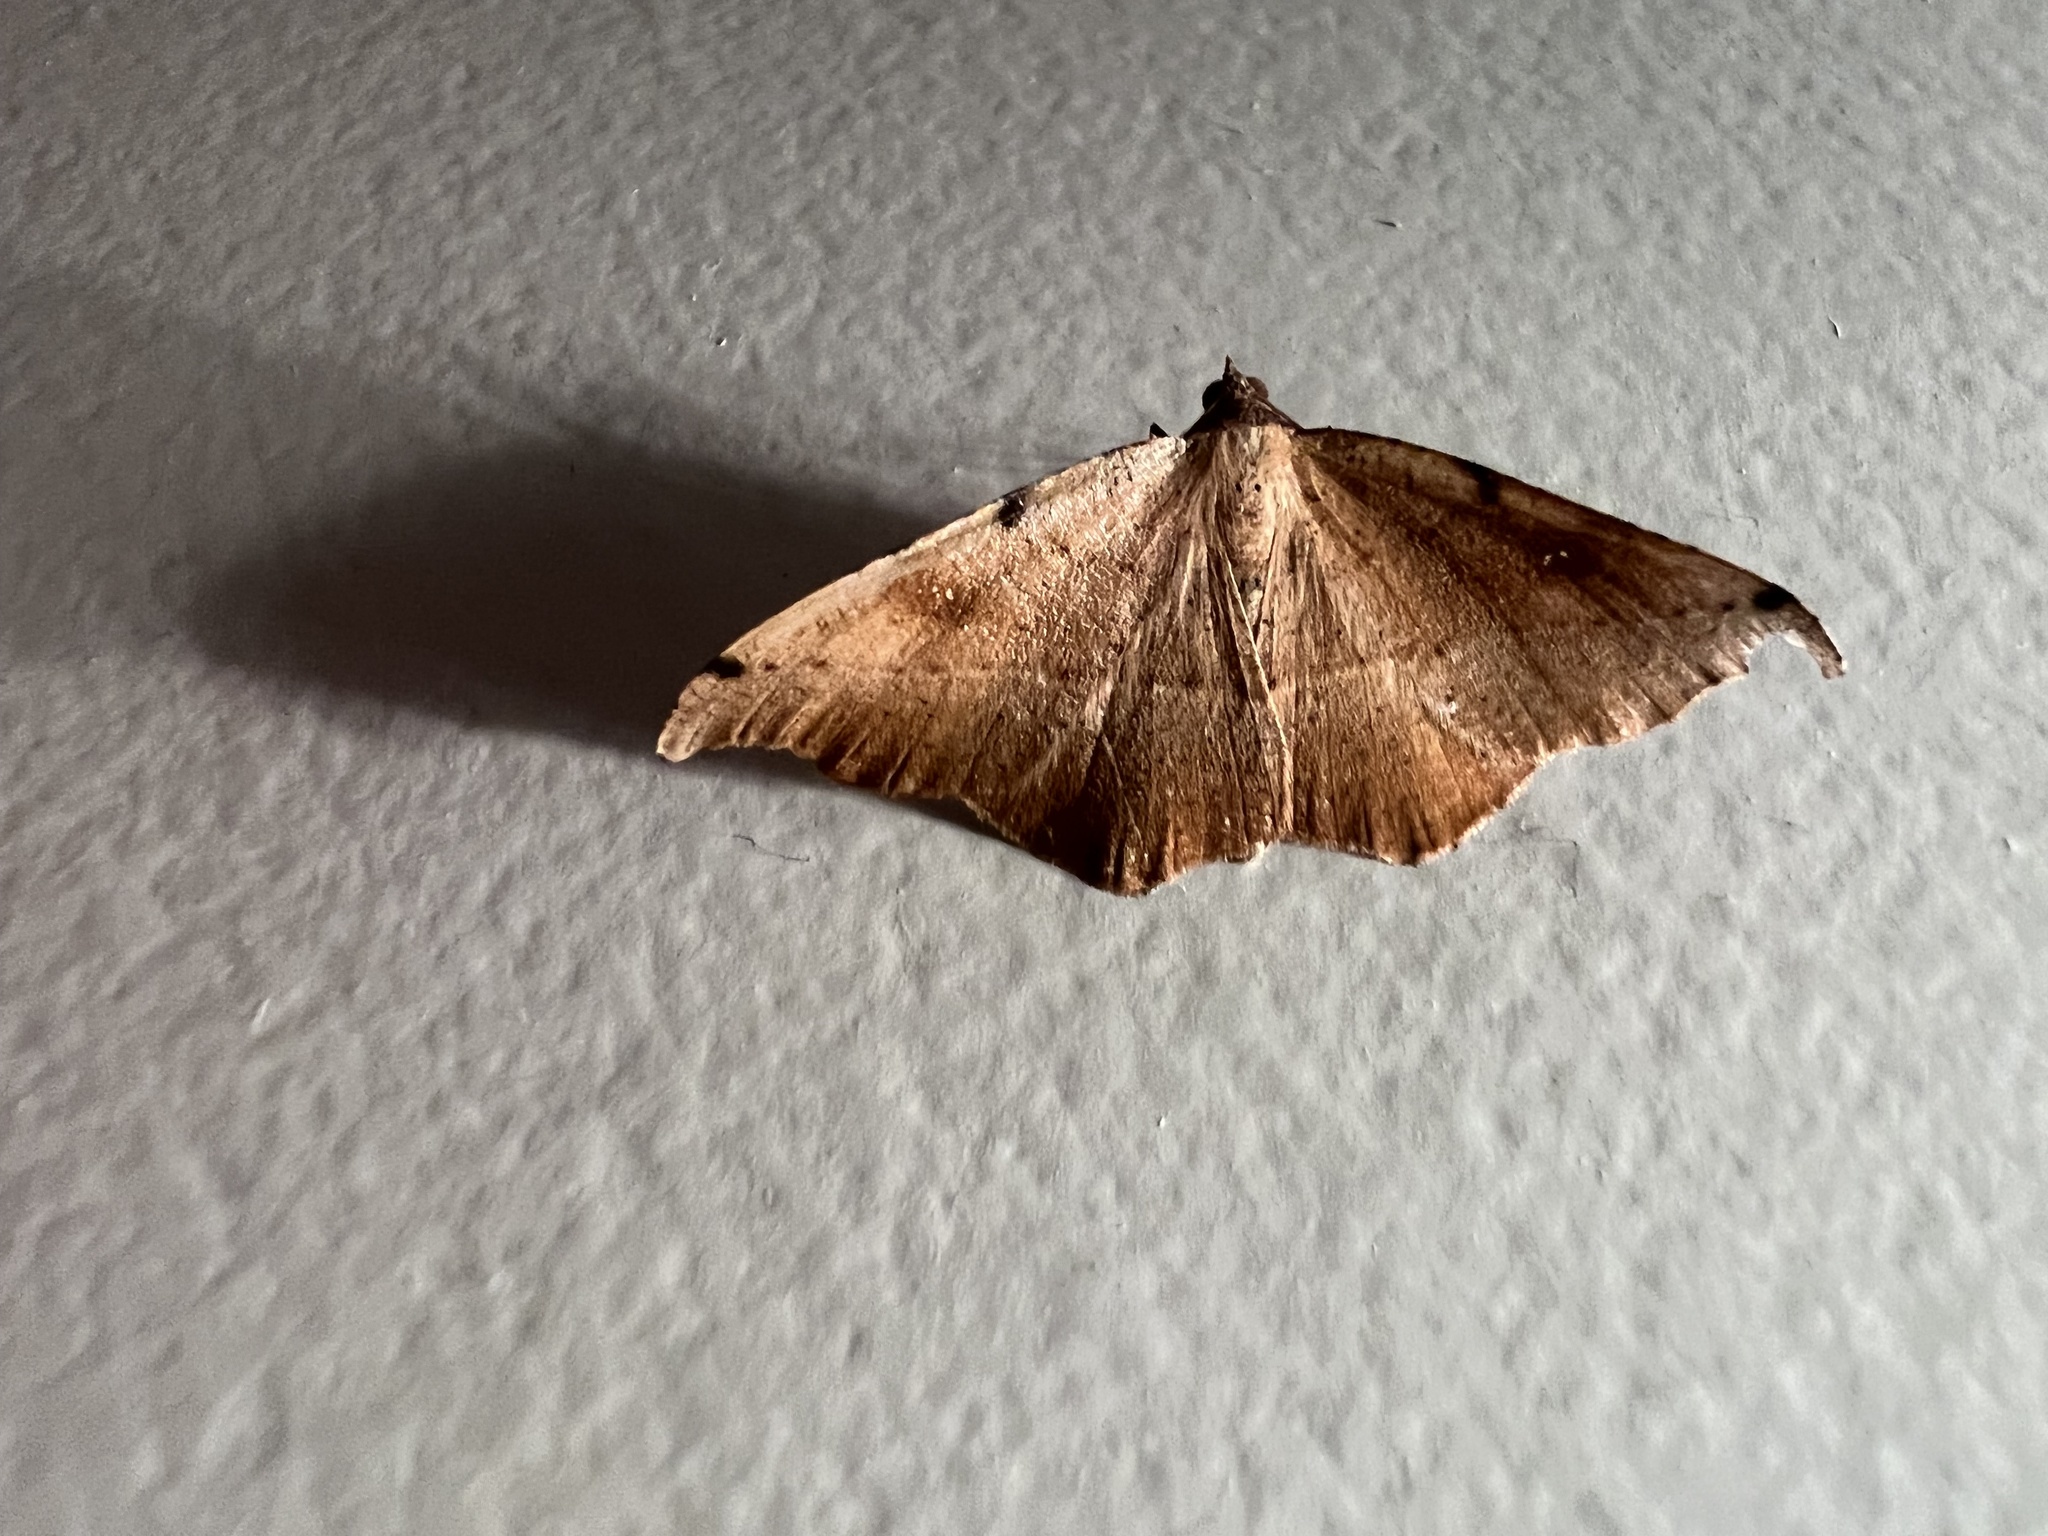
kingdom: Animalia
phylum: Arthropoda
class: Insecta
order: Lepidoptera
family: Geometridae
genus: Sarisa
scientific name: Sarisa muriferata
